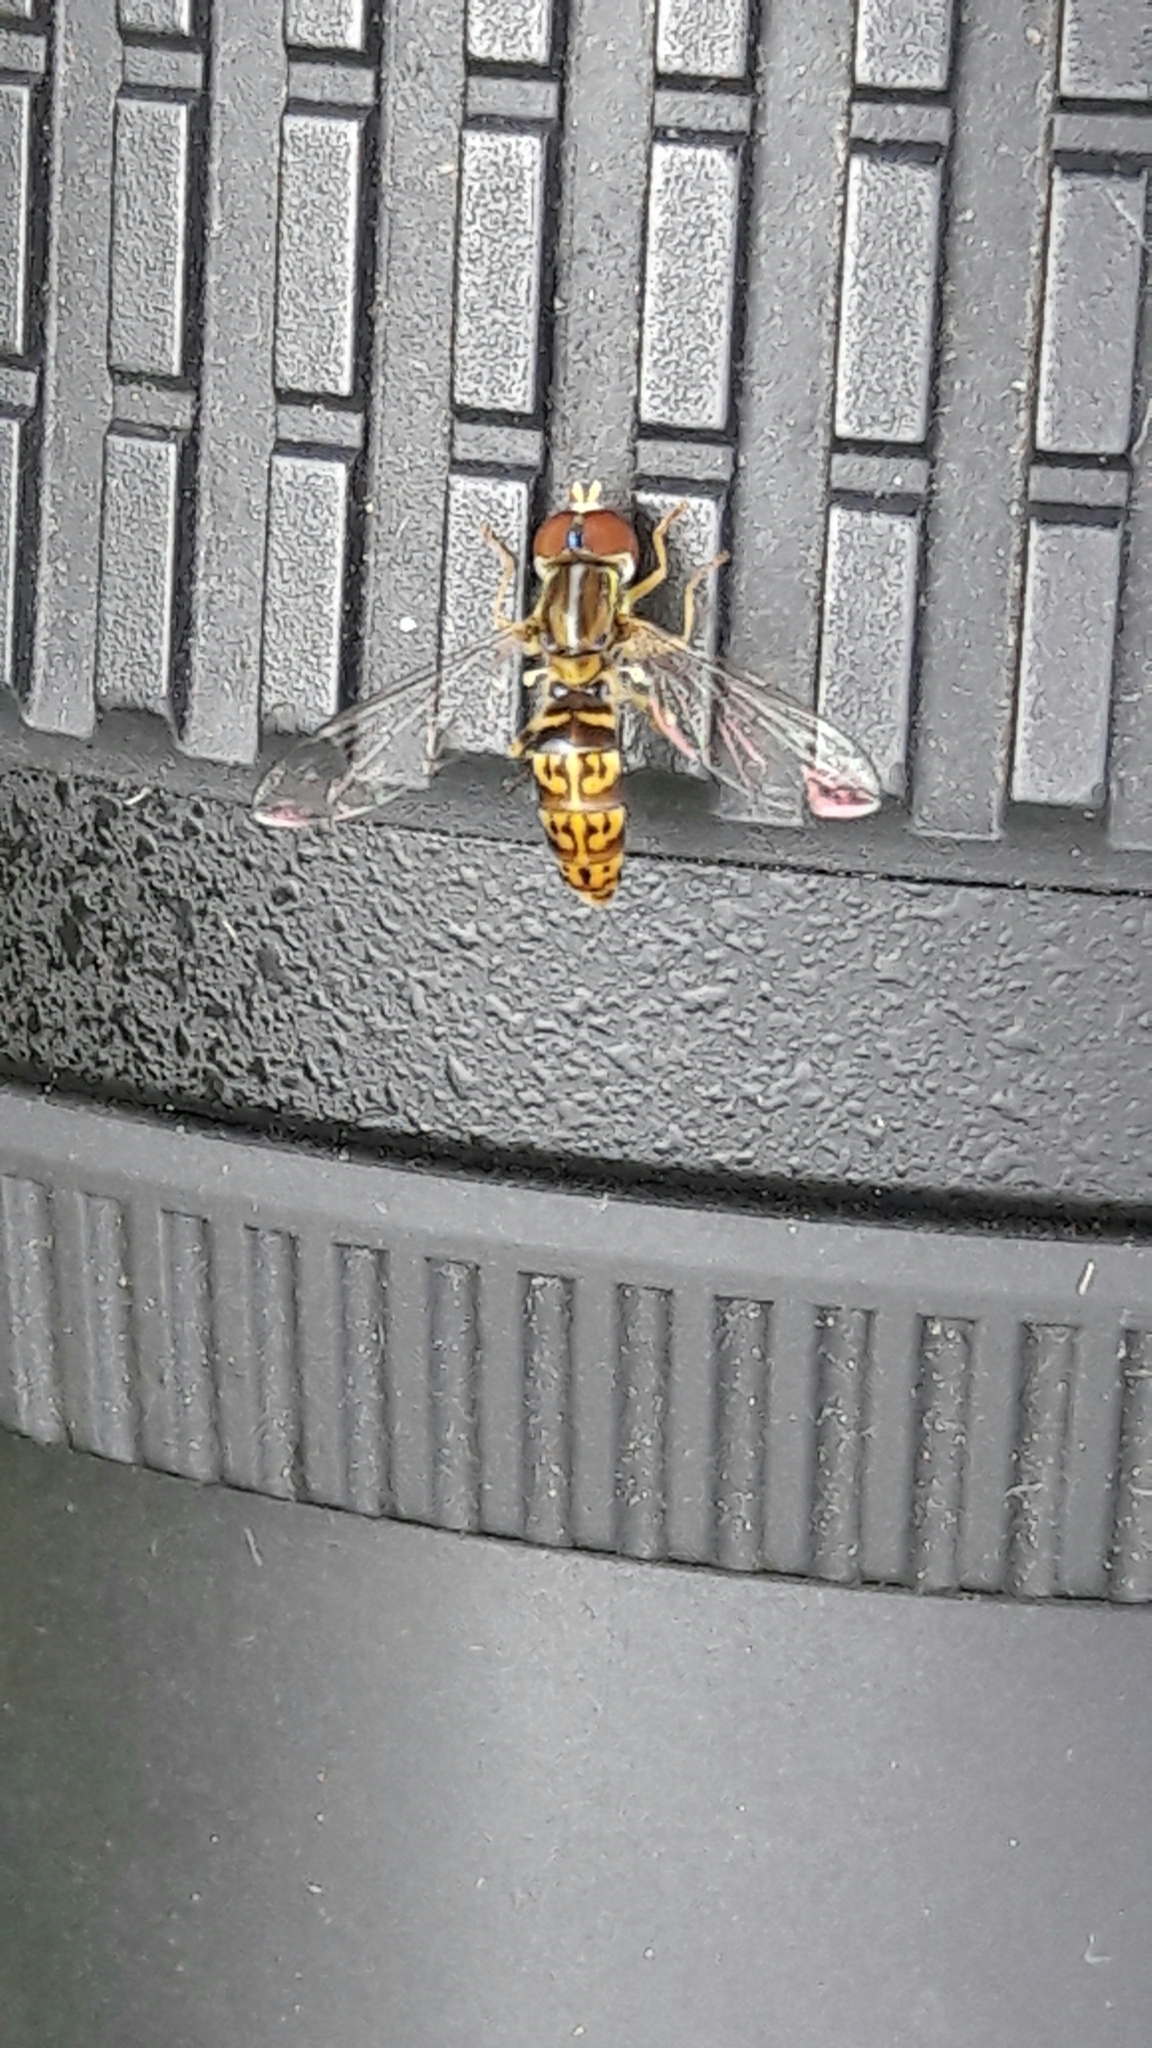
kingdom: Animalia
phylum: Arthropoda
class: Insecta
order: Diptera
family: Syrphidae
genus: Toxomerus
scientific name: Toxomerus
